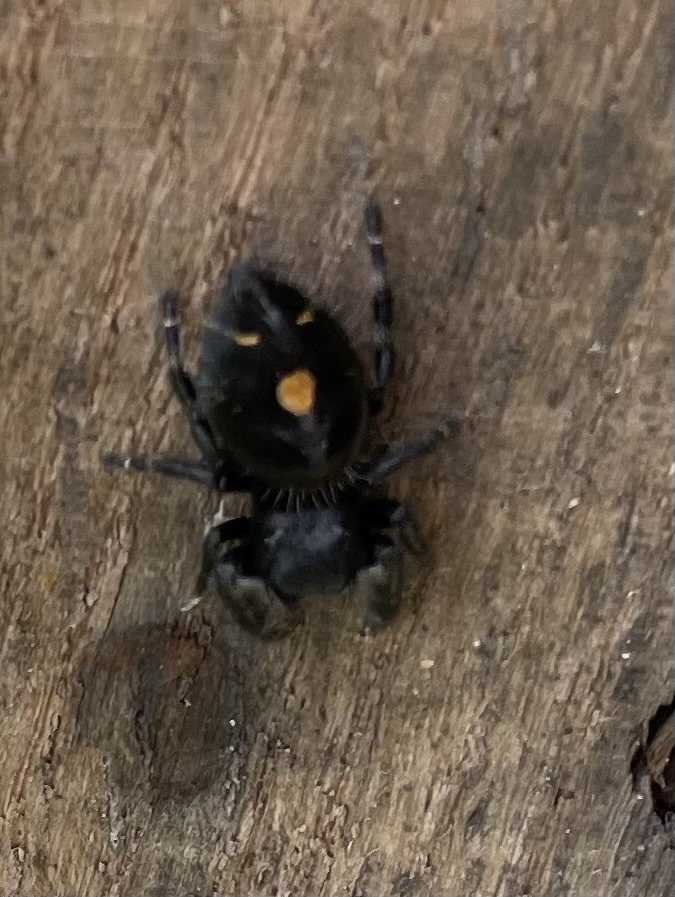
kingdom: Animalia
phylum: Arthropoda
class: Arachnida
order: Araneae
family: Salticidae
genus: Phidippus
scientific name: Phidippus audax
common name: Bold jumper
